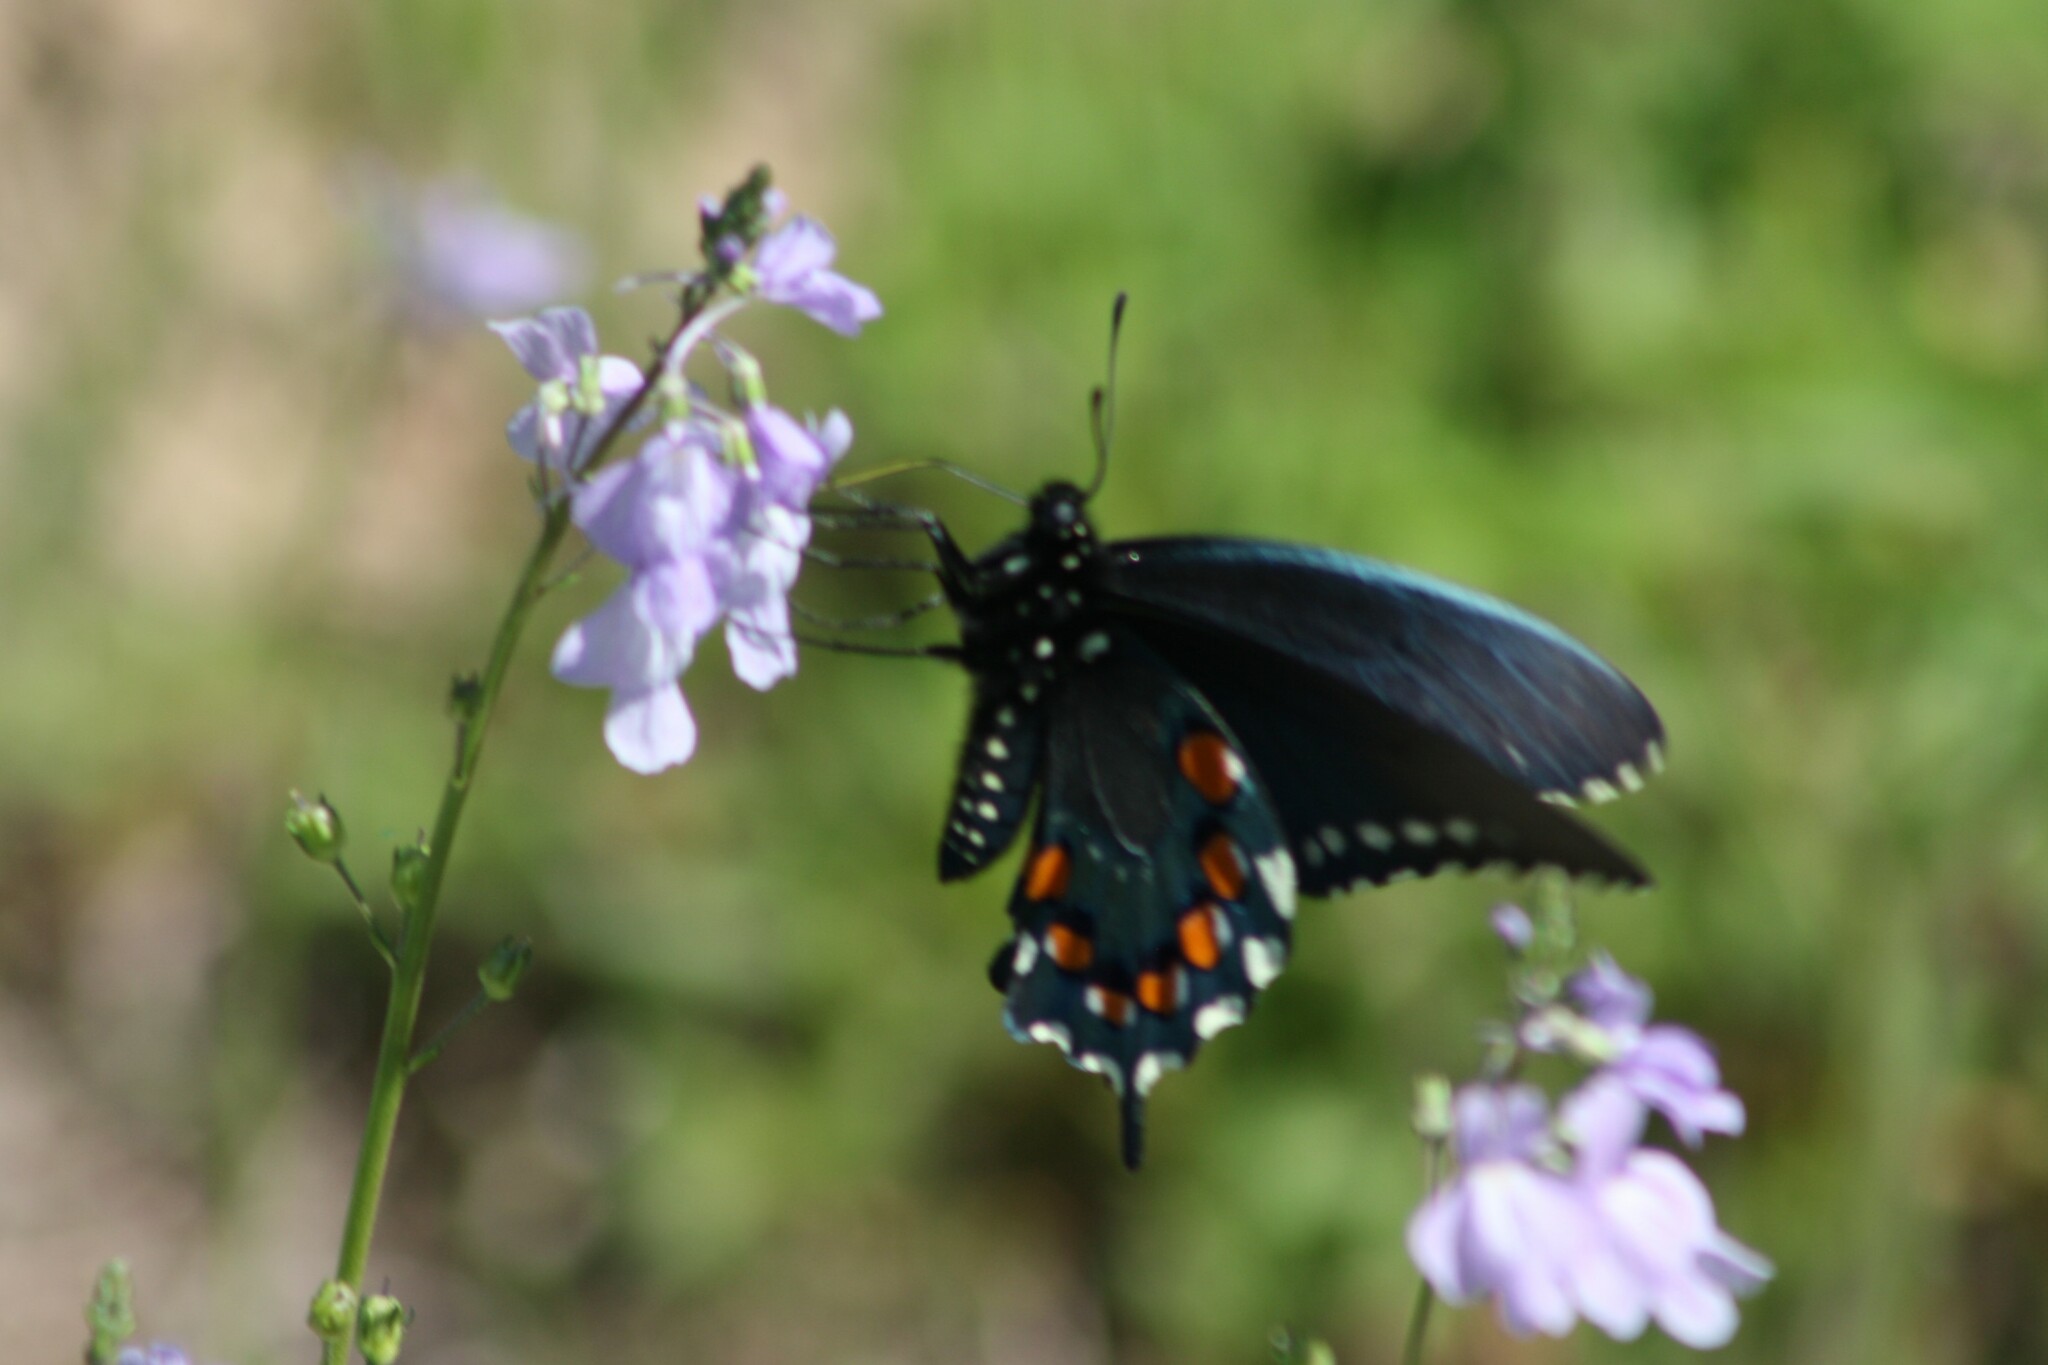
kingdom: Animalia
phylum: Arthropoda
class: Insecta
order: Lepidoptera
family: Papilionidae
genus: Battus
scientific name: Battus philenor
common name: Pipevine swallowtail
